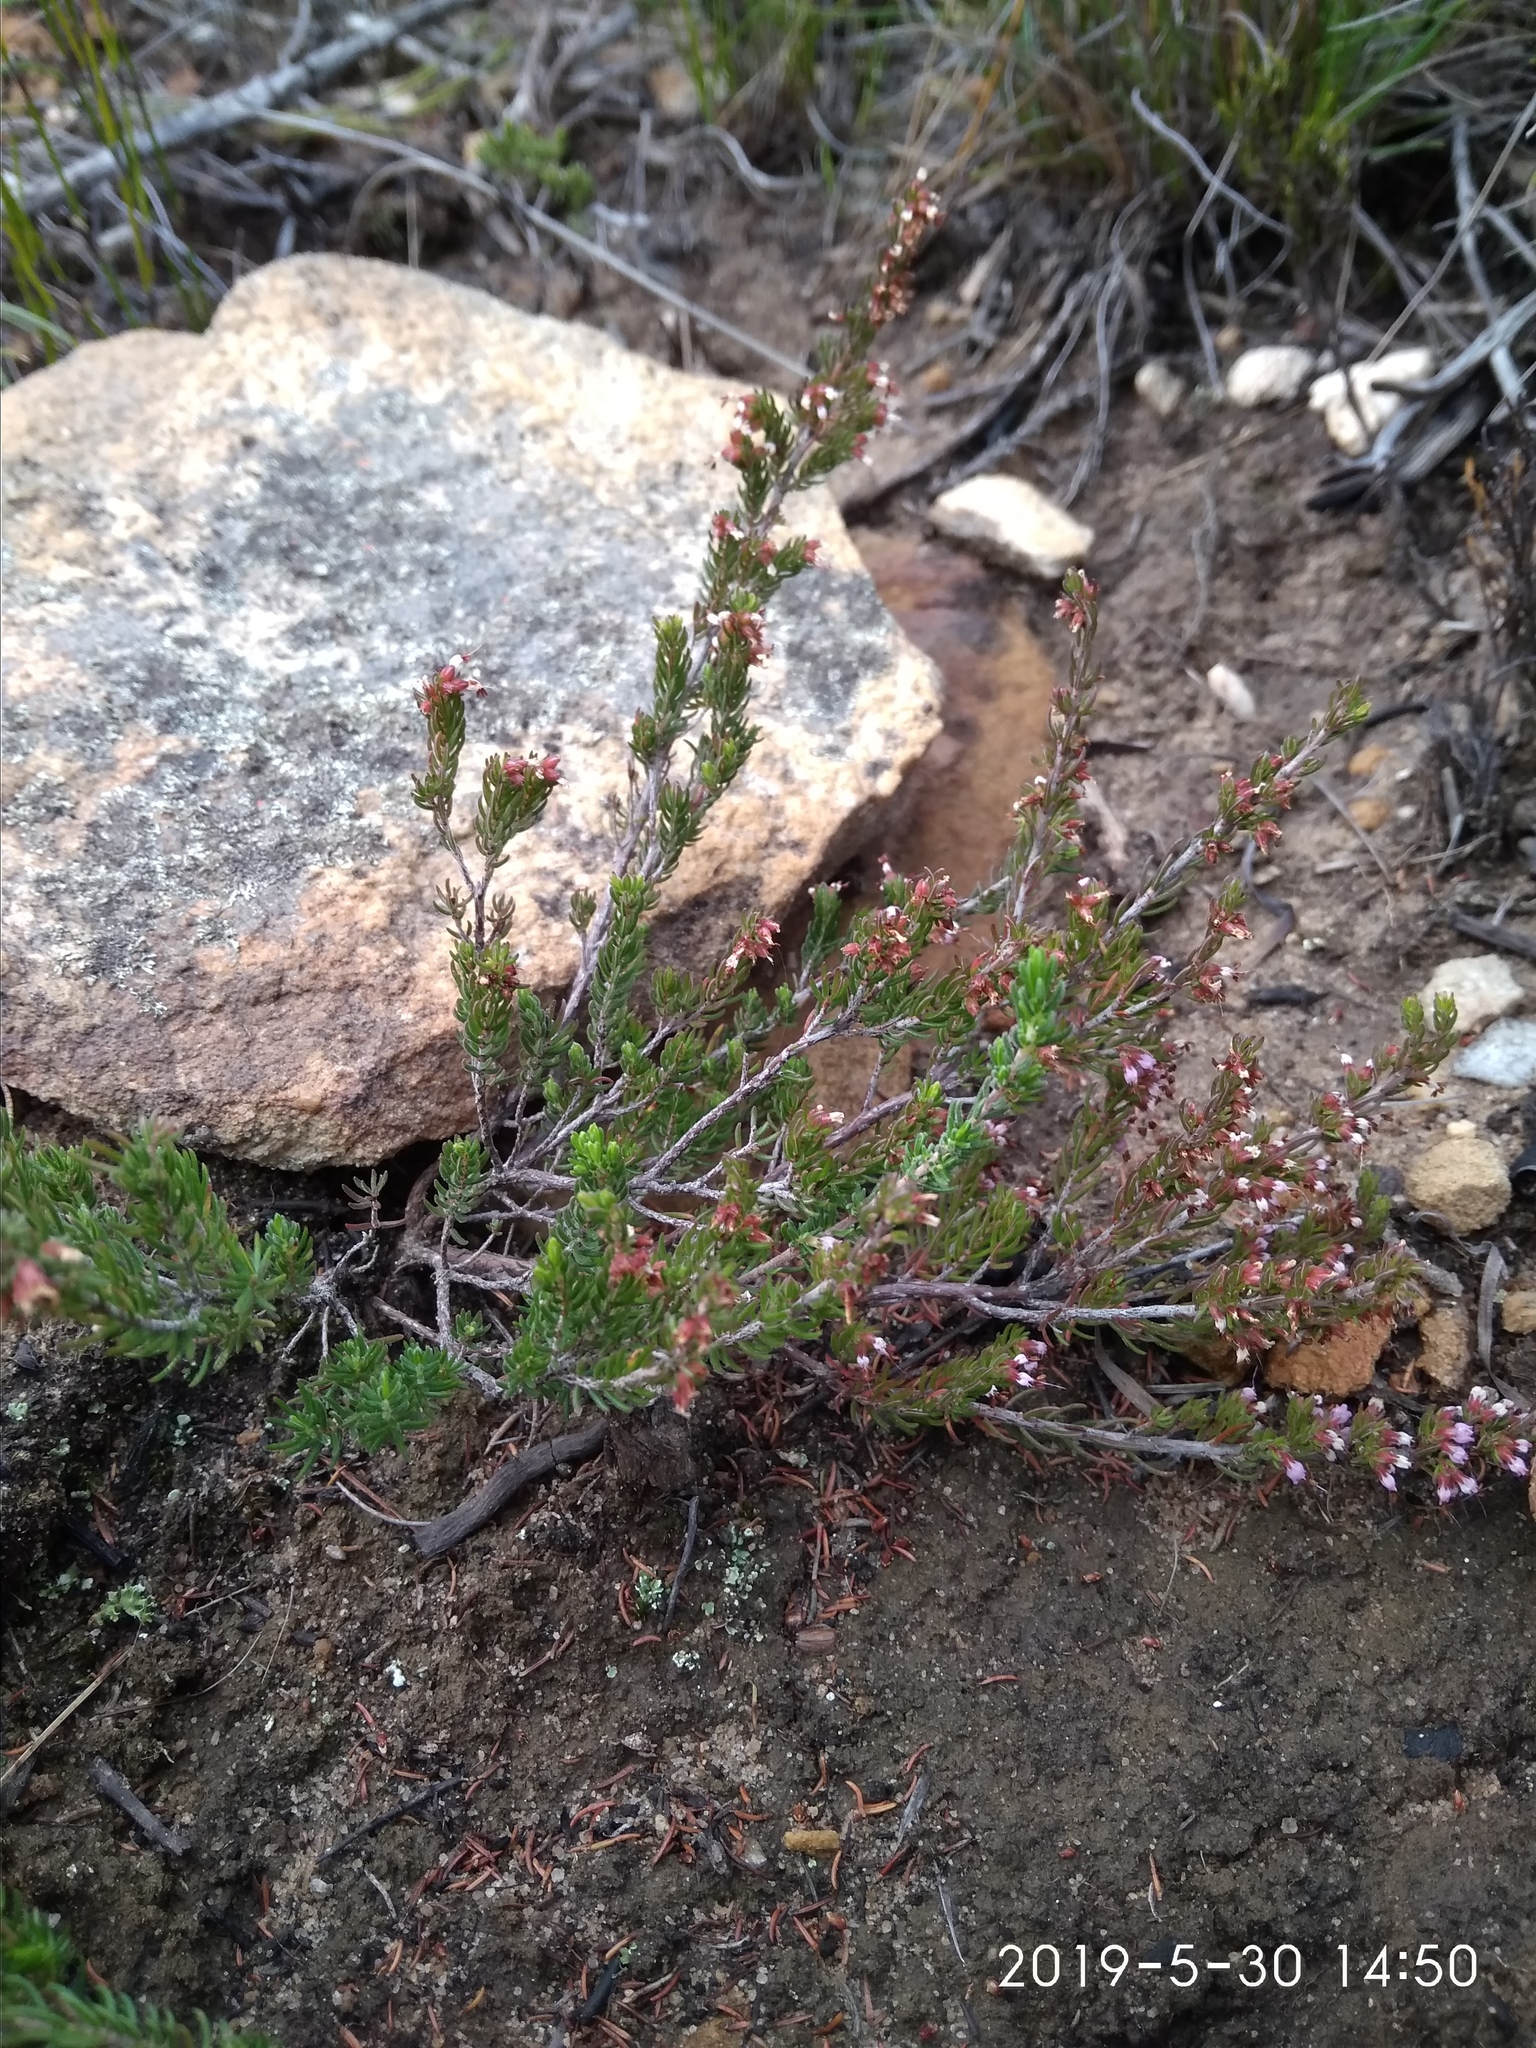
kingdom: Plantae
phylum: Tracheophyta
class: Magnoliopsida
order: Ericales
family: Ericaceae
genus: Erica
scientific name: Erica phaeocarpa
